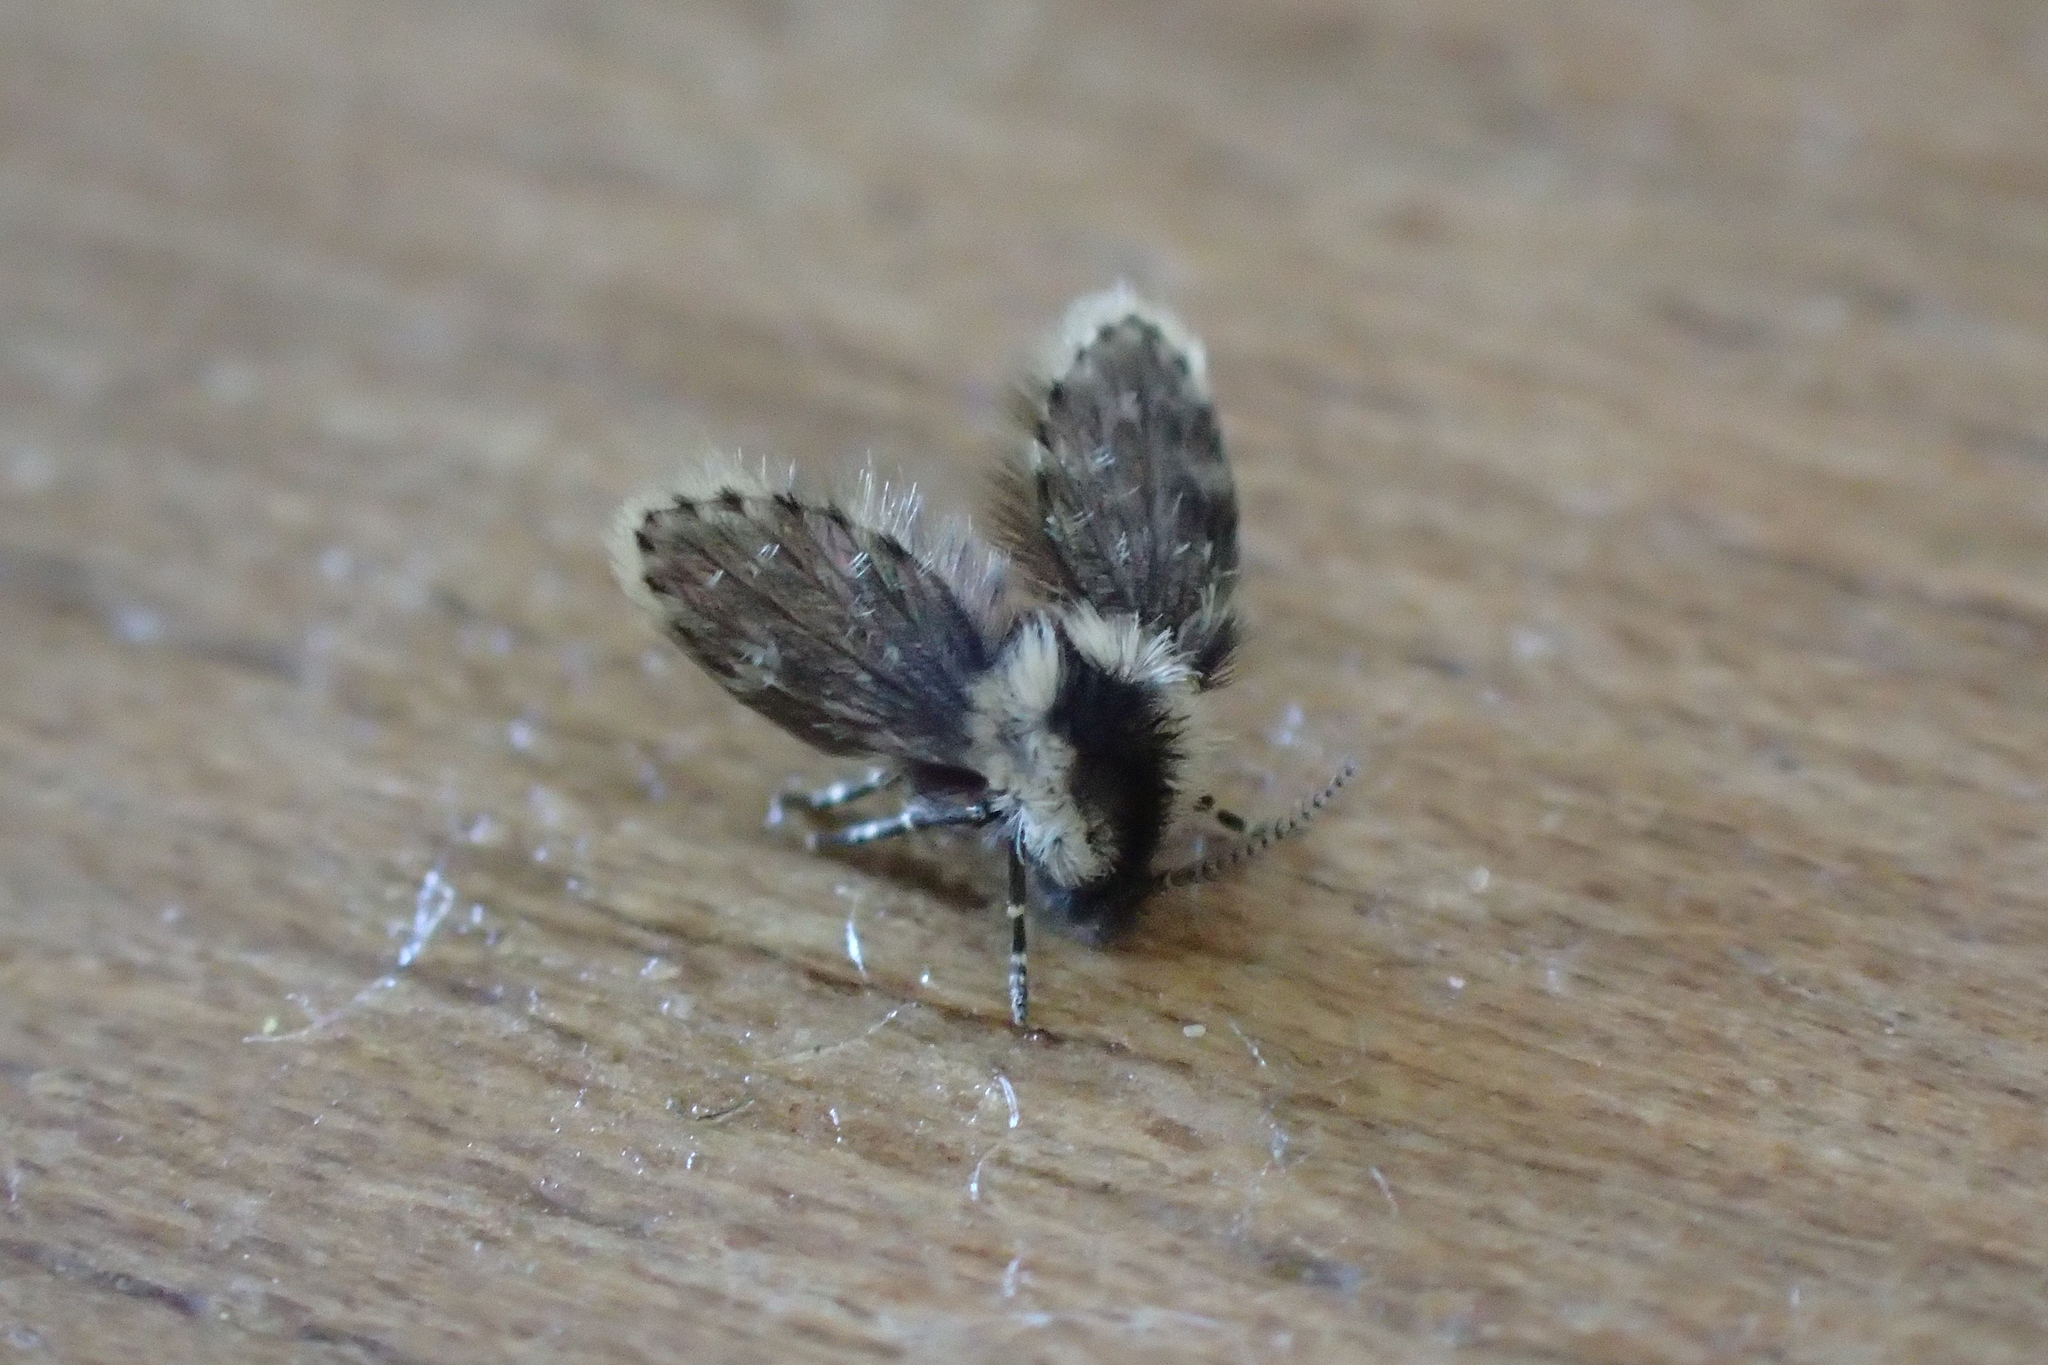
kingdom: Animalia
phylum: Arthropoda
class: Insecta
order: Diptera
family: Psychodidae
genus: Lepiseodina
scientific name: Lepiseodina
